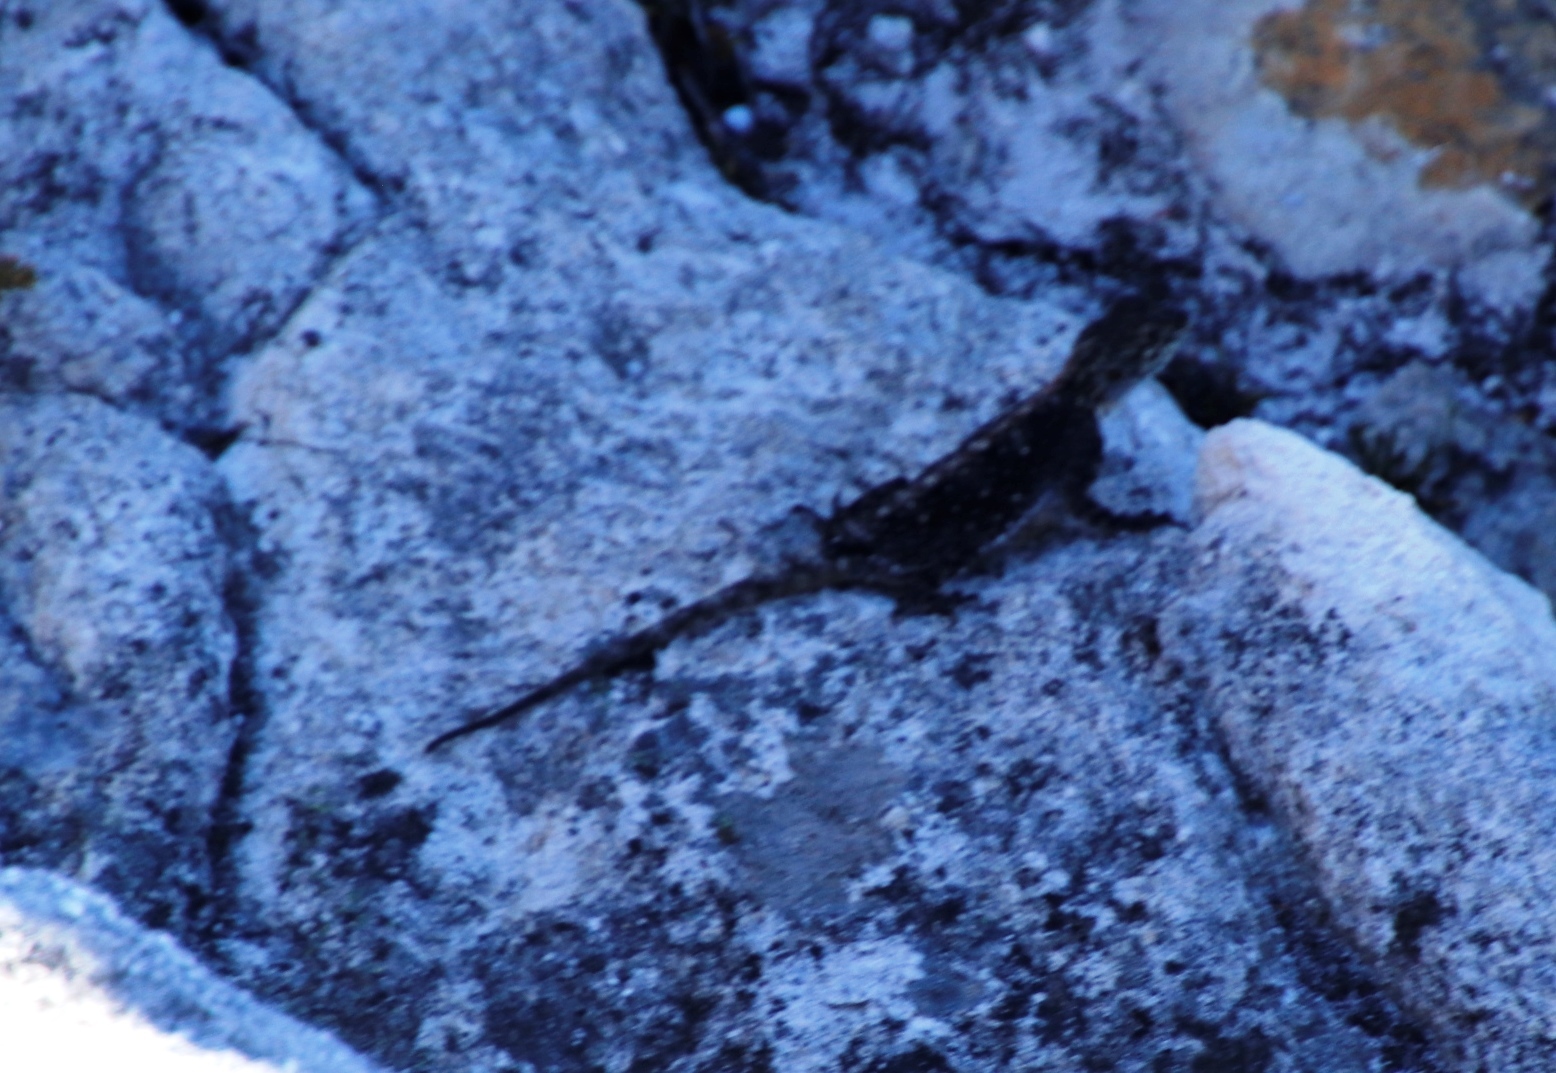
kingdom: Animalia
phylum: Chordata
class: Squamata
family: Agamidae
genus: Agama
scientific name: Agama atra
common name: Southern african rock agama
